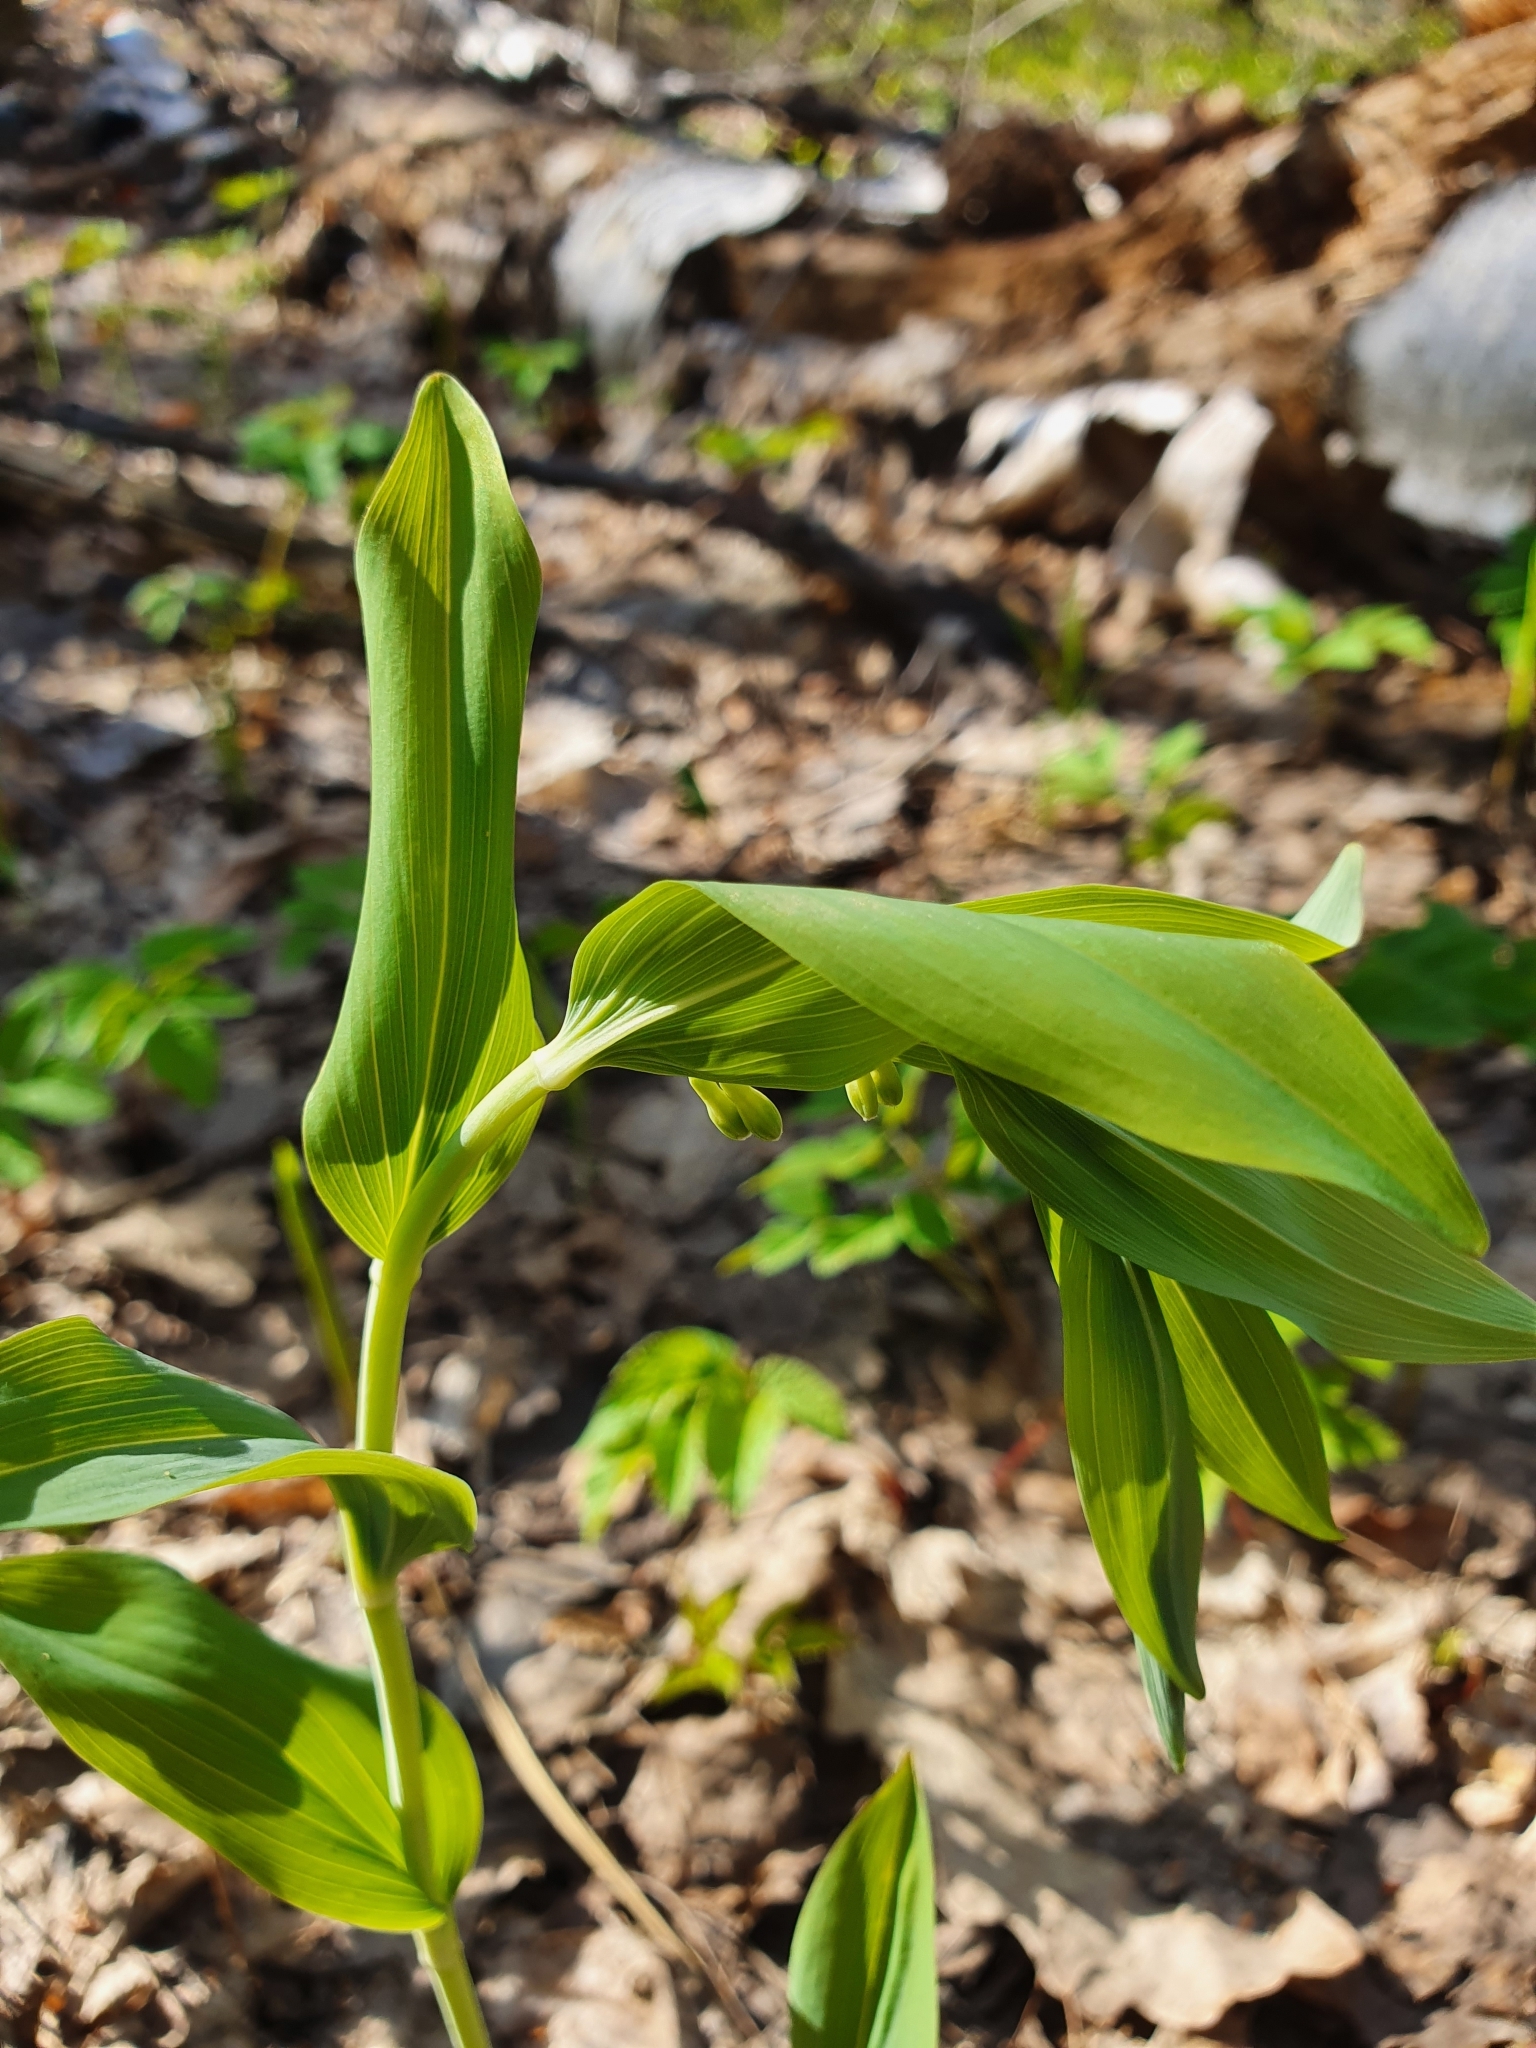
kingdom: Plantae
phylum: Tracheophyta
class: Liliopsida
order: Asparagales
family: Asparagaceae
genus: Polygonatum
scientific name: Polygonatum multiflorum
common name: Solomon's-seal
